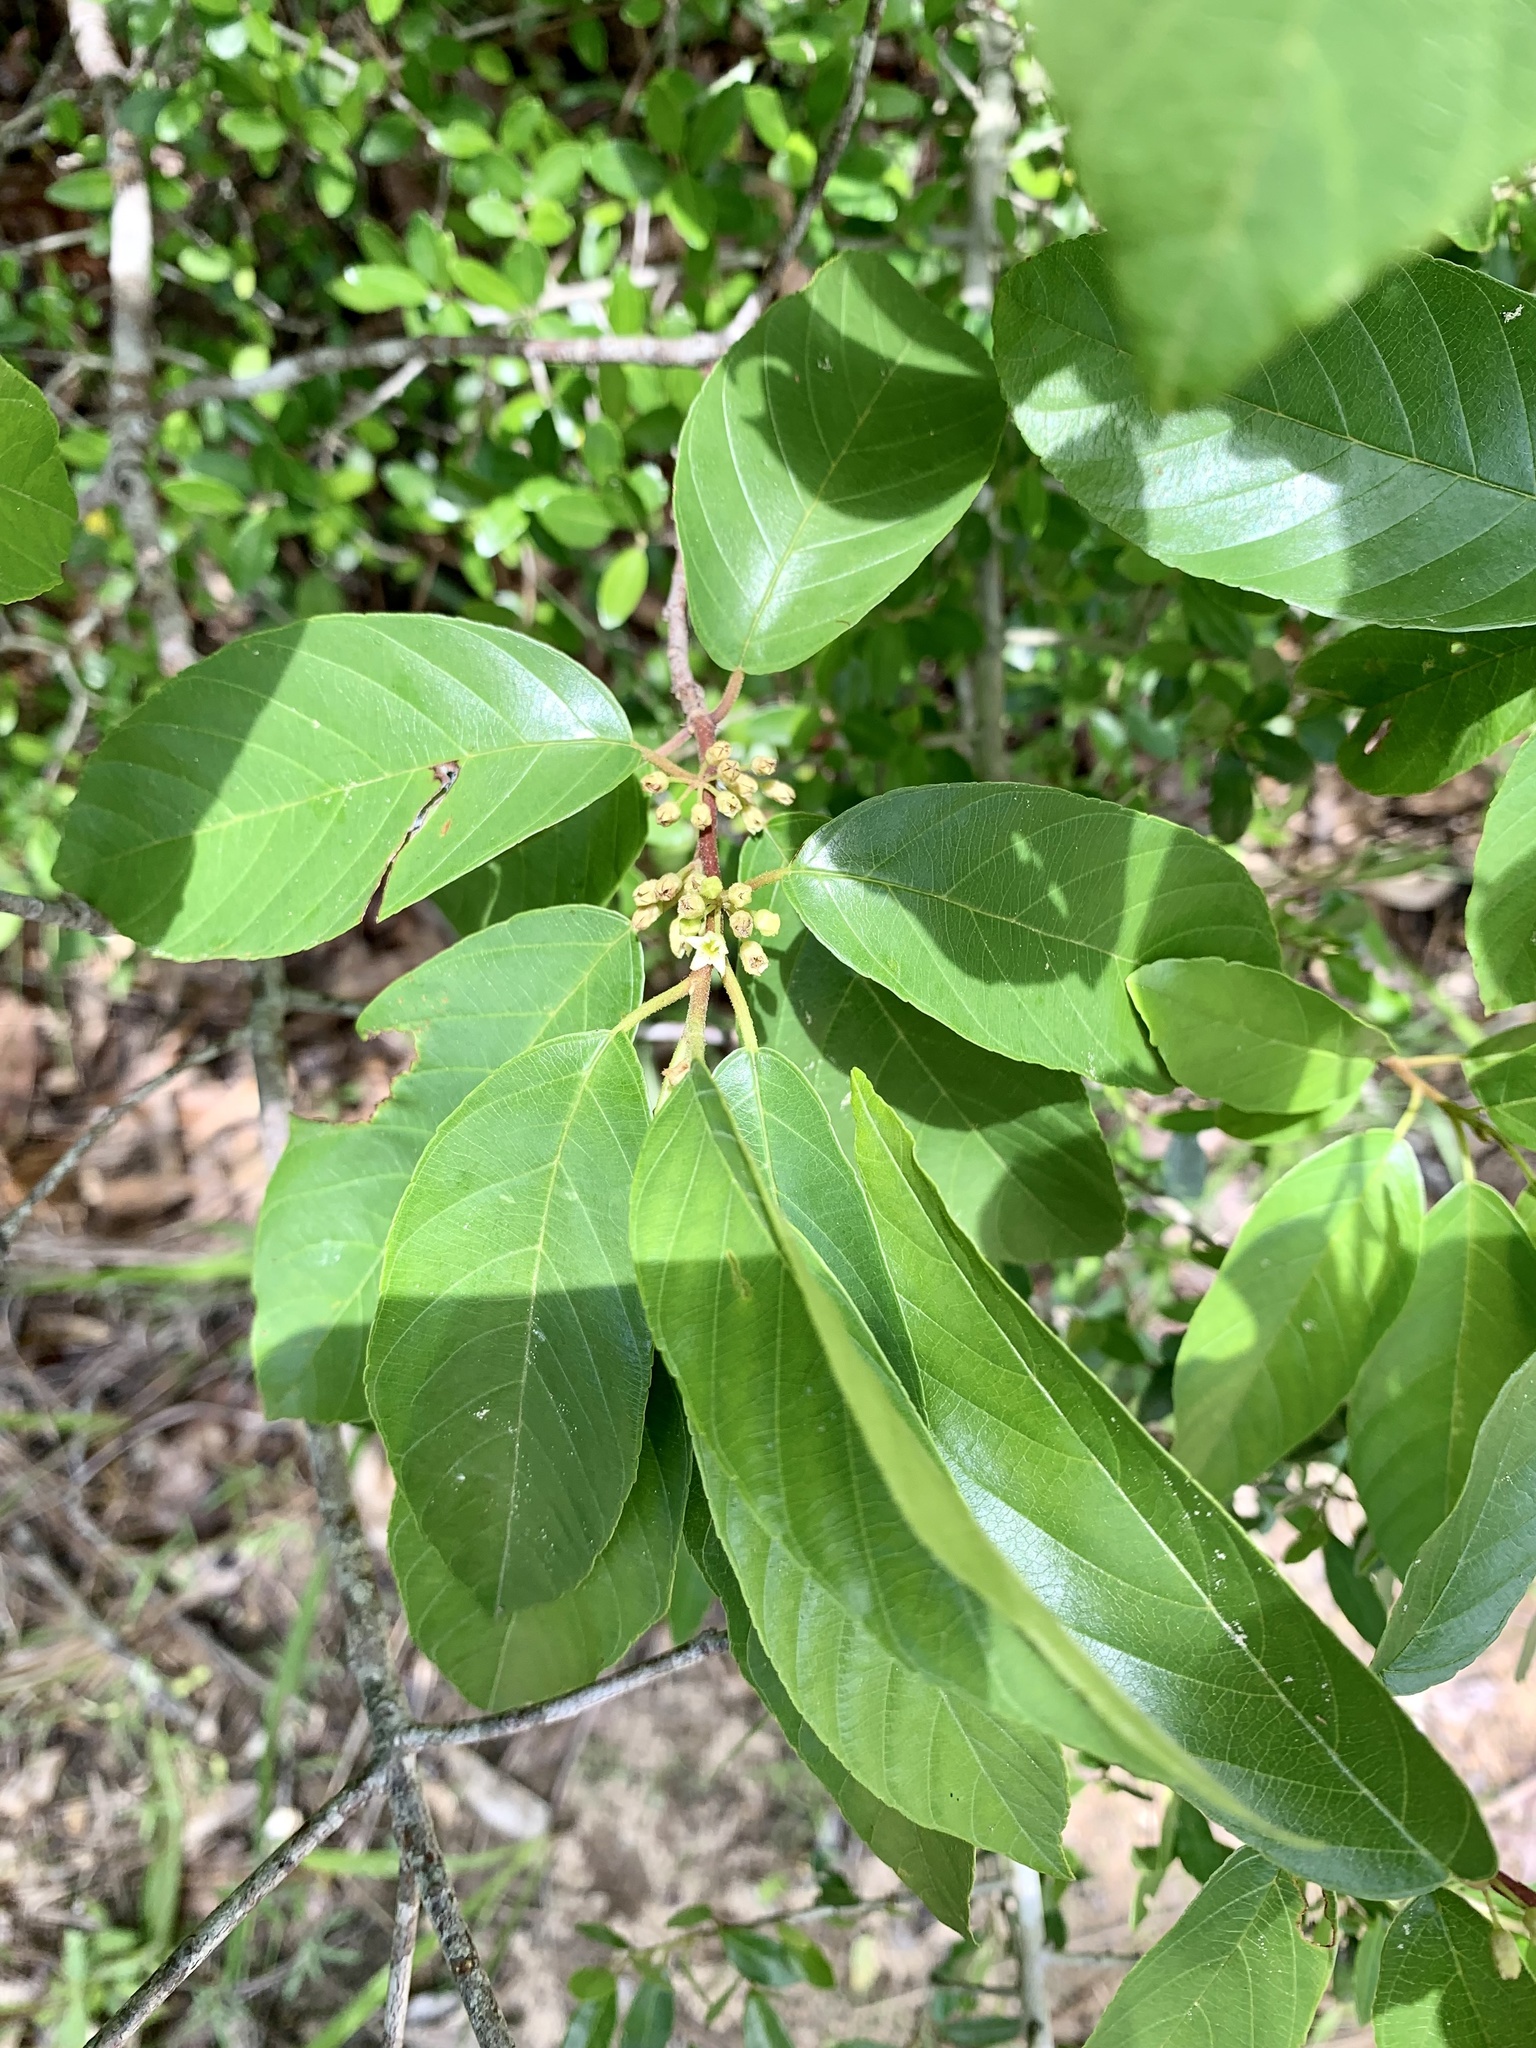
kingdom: Plantae
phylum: Tracheophyta
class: Magnoliopsida
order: Rosales
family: Rhamnaceae
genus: Frangula
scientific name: Frangula caroliniana
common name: Carolina buckthorn
